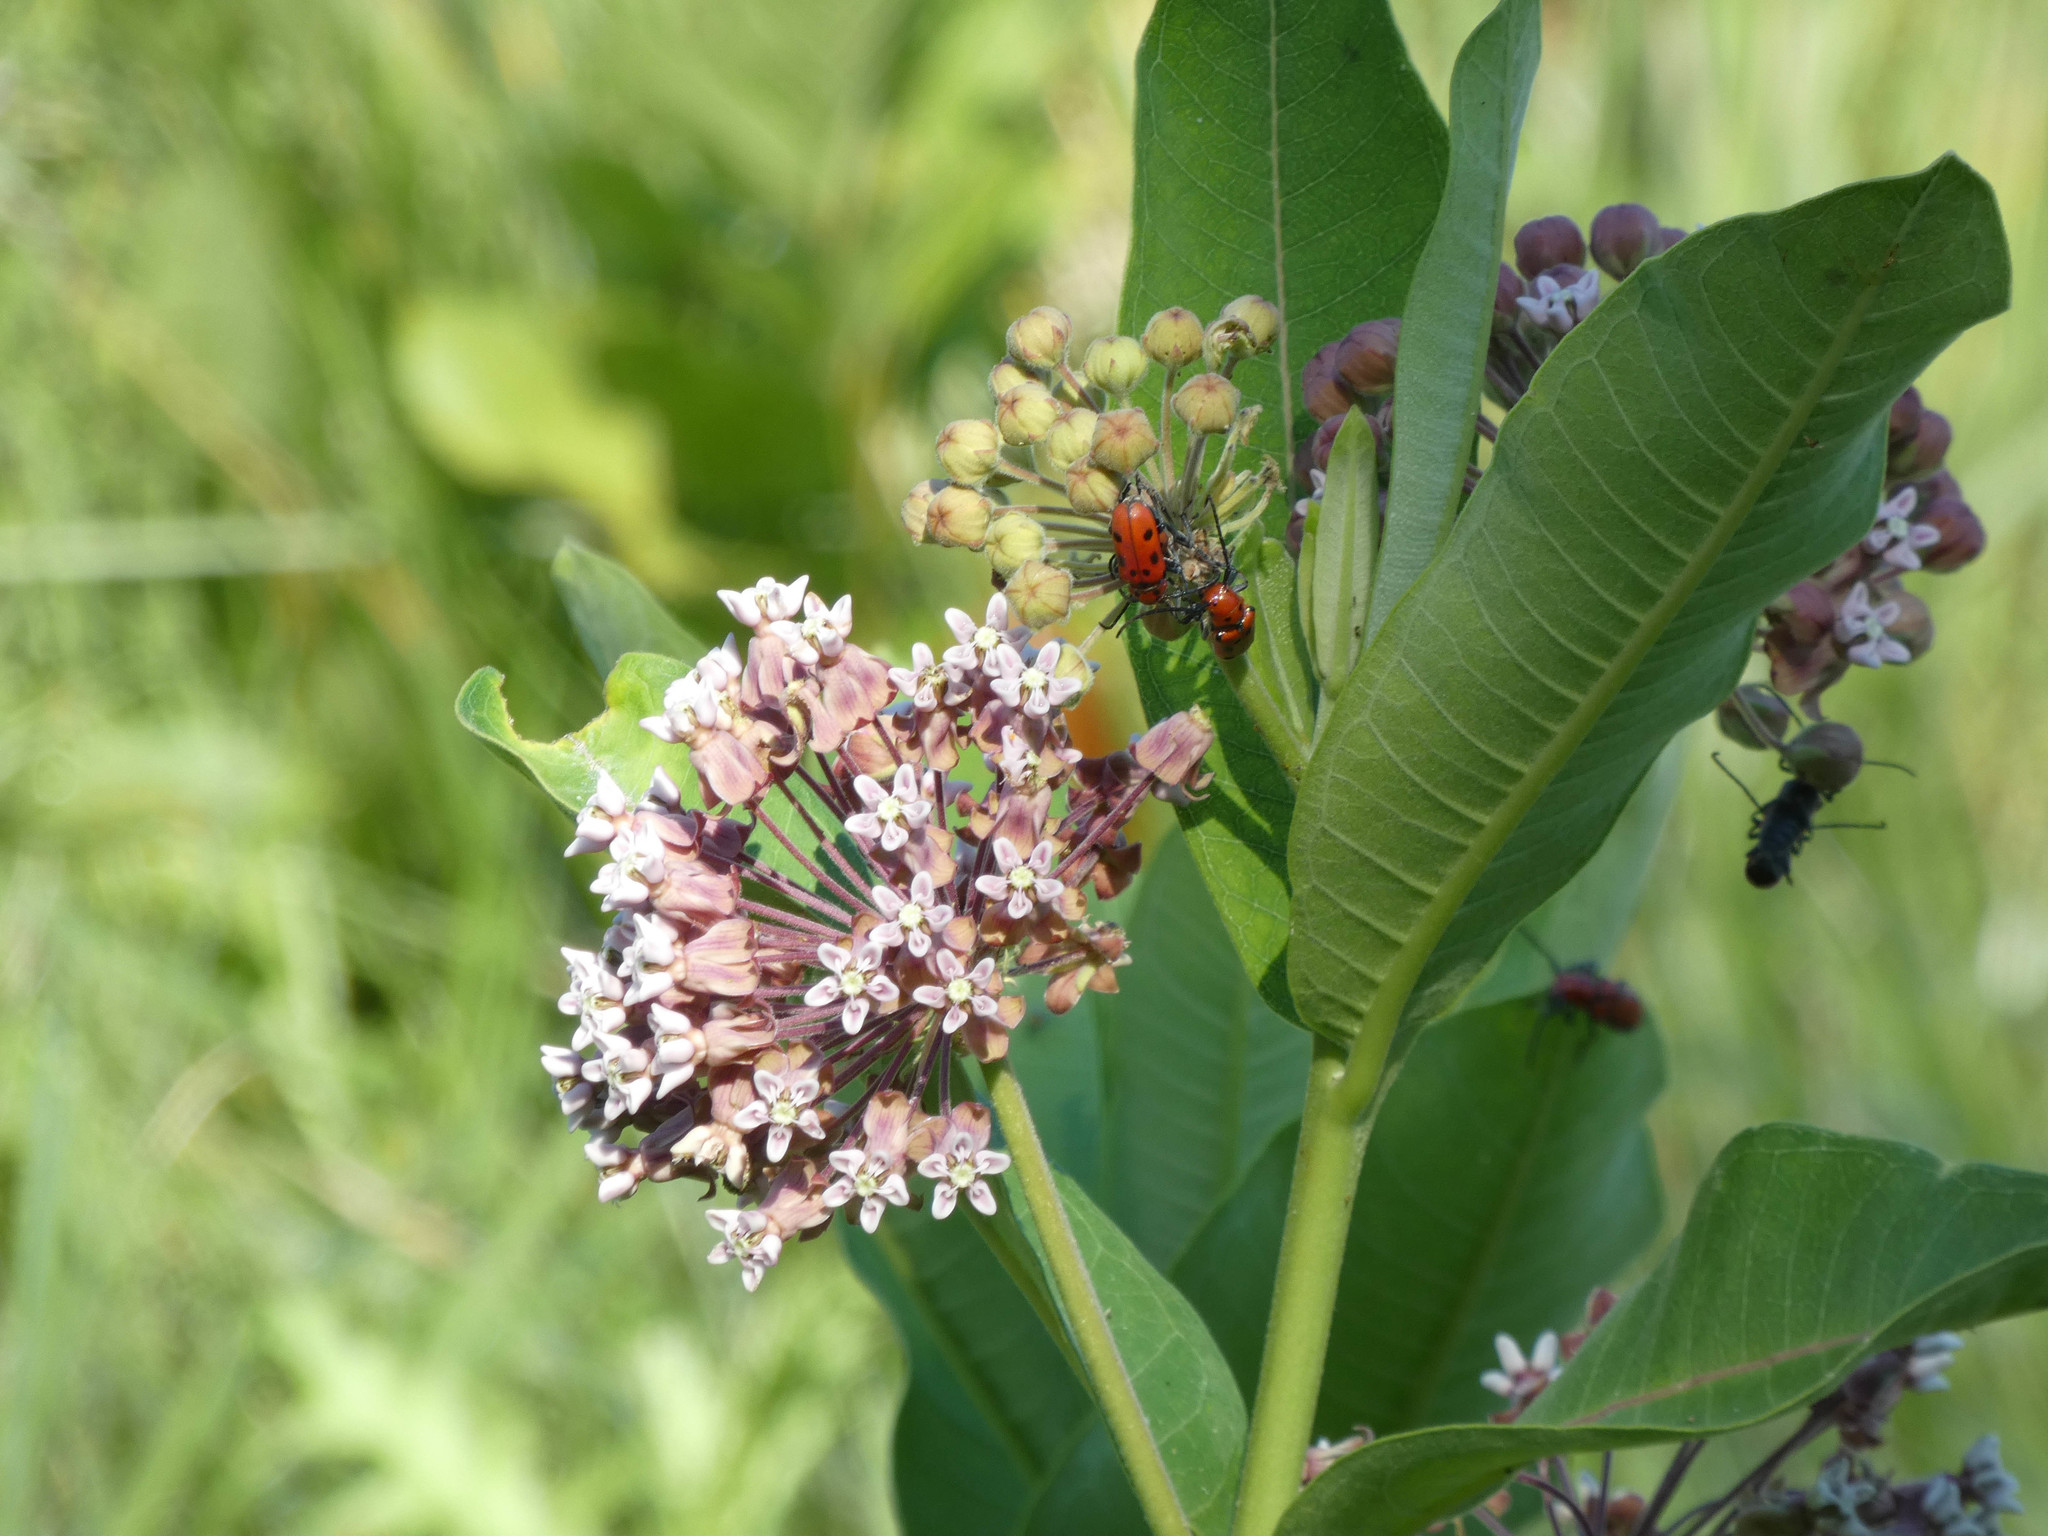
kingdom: Plantae
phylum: Tracheophyta
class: Magnoliopsida
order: Gentianales
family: Apocynaceae
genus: Asclepias
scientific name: Asclepias syriaca
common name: Common milkweed
